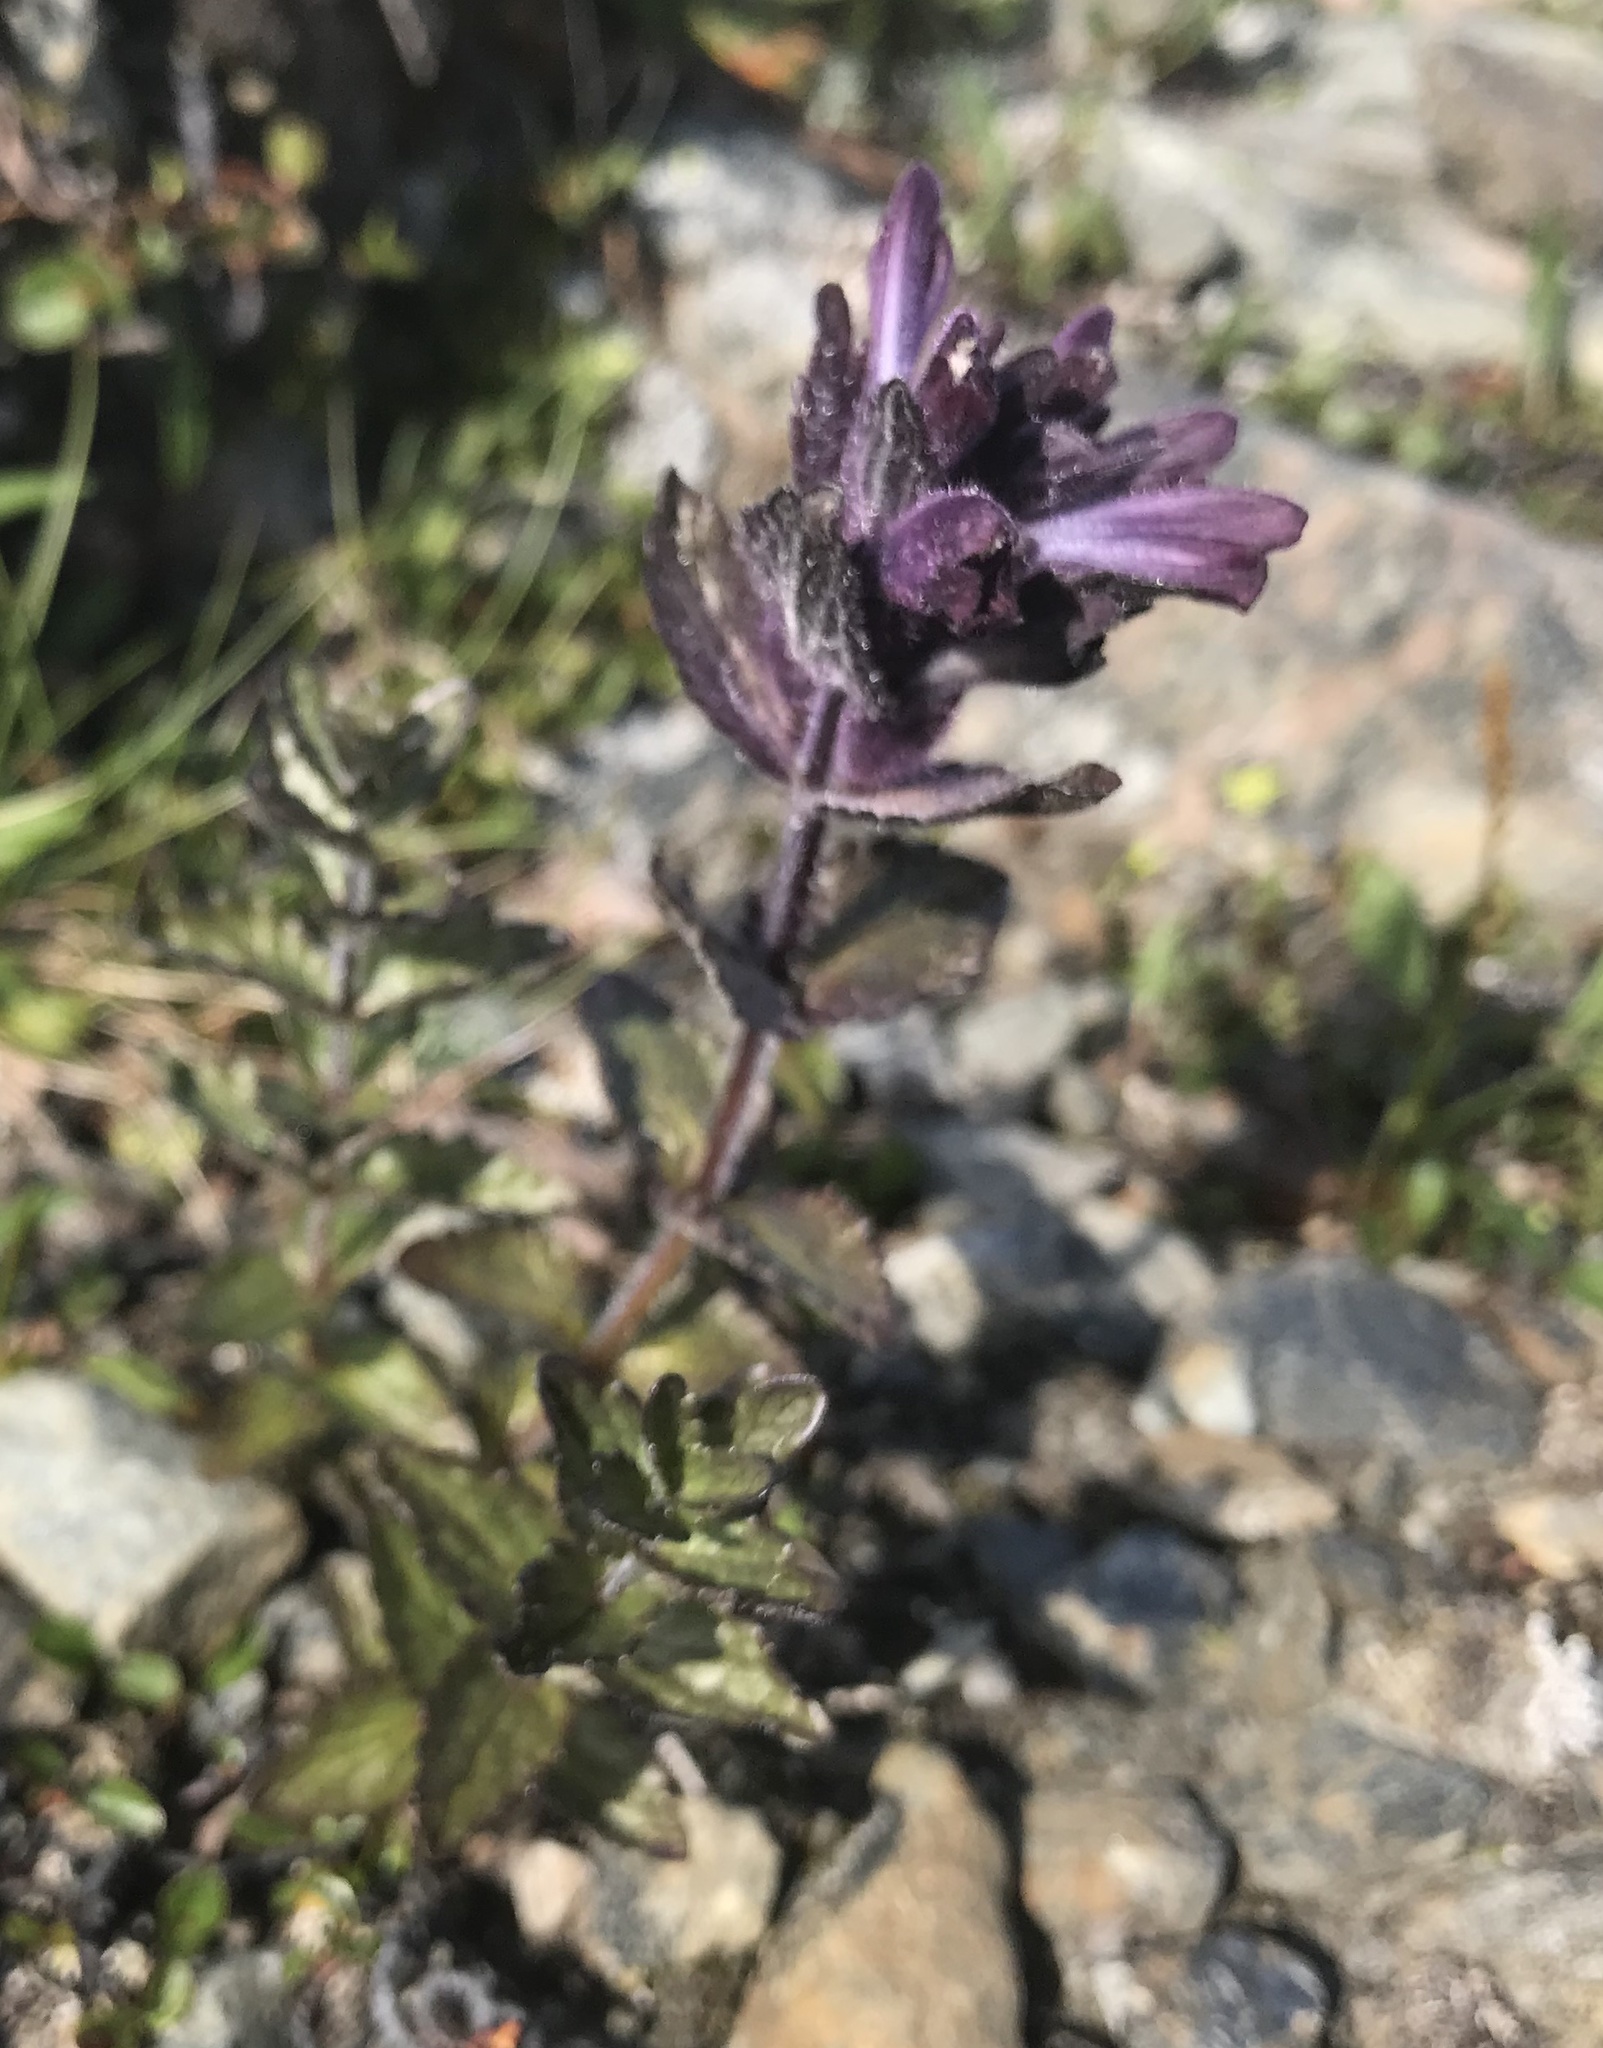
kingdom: Plantae
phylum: Tracheophyta
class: Magnoliopsida
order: Lamiales
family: Orobanchaceae
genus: Bartsia
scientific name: Bartsia alpina
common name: Alpine bartsia
